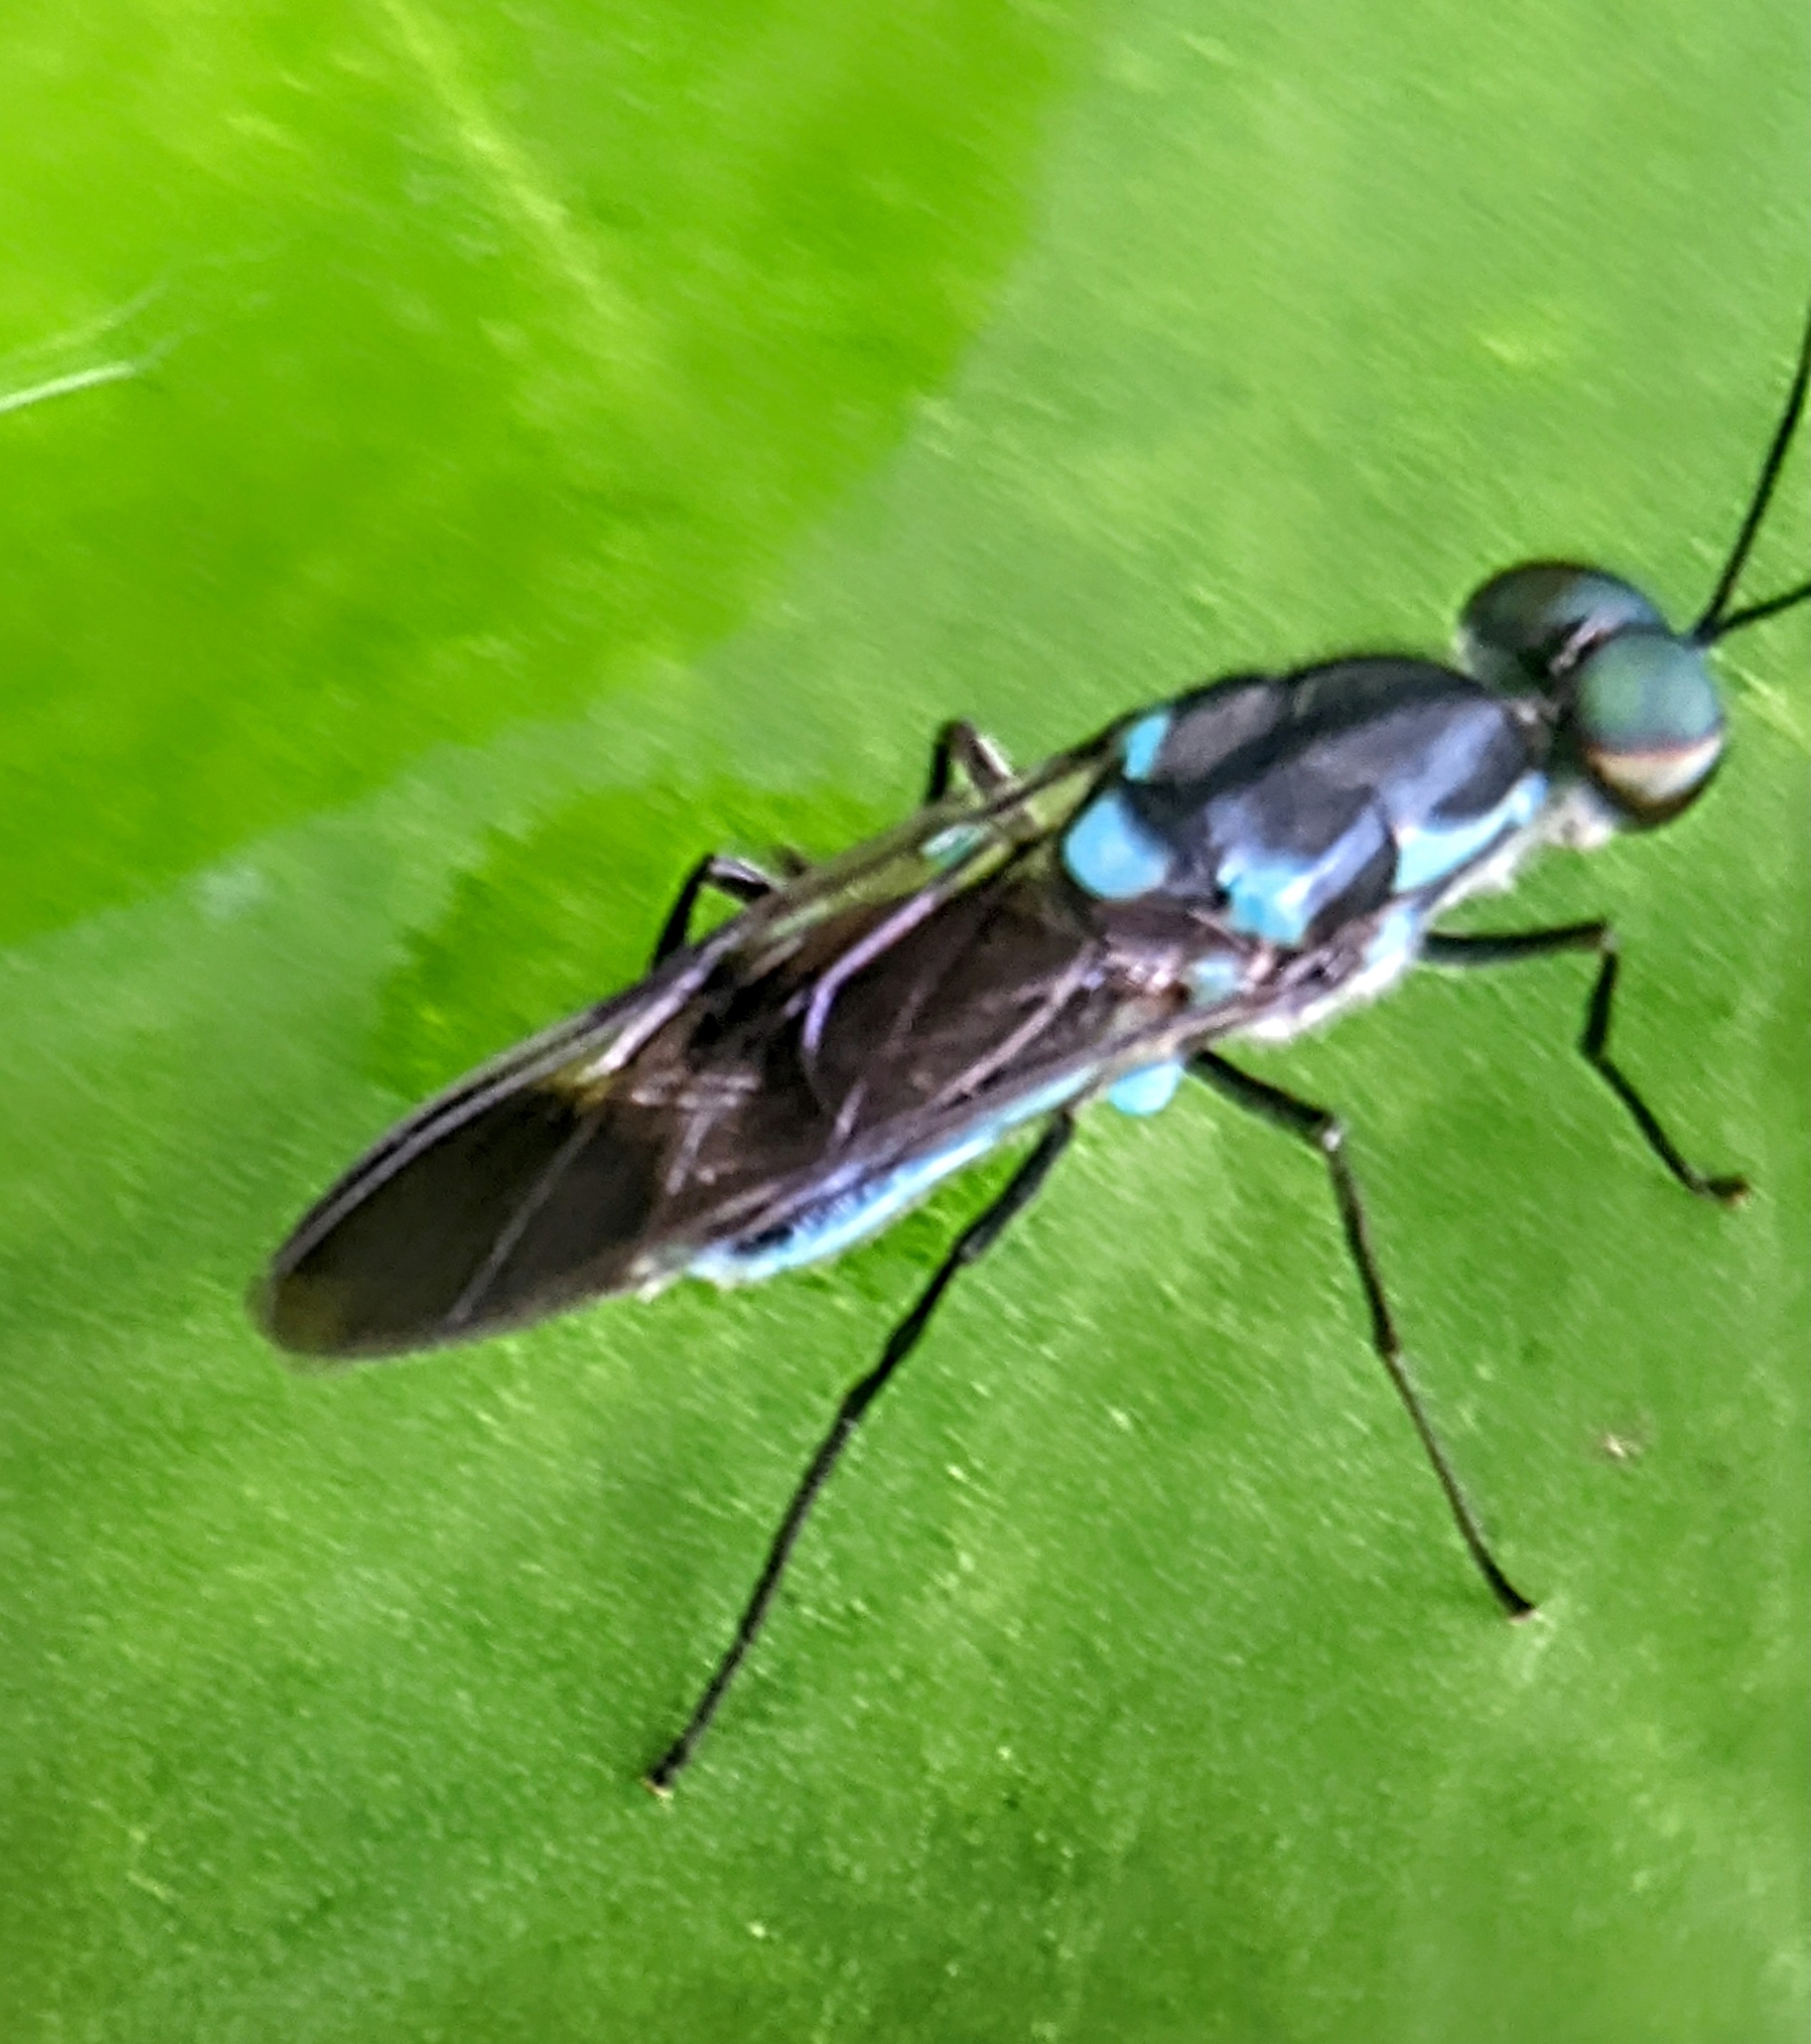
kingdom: Animalia
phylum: Arthropoda
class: Insecta
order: Diptera
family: Stratiomyidae
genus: Eudmeta
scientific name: Eudmeta marginata
